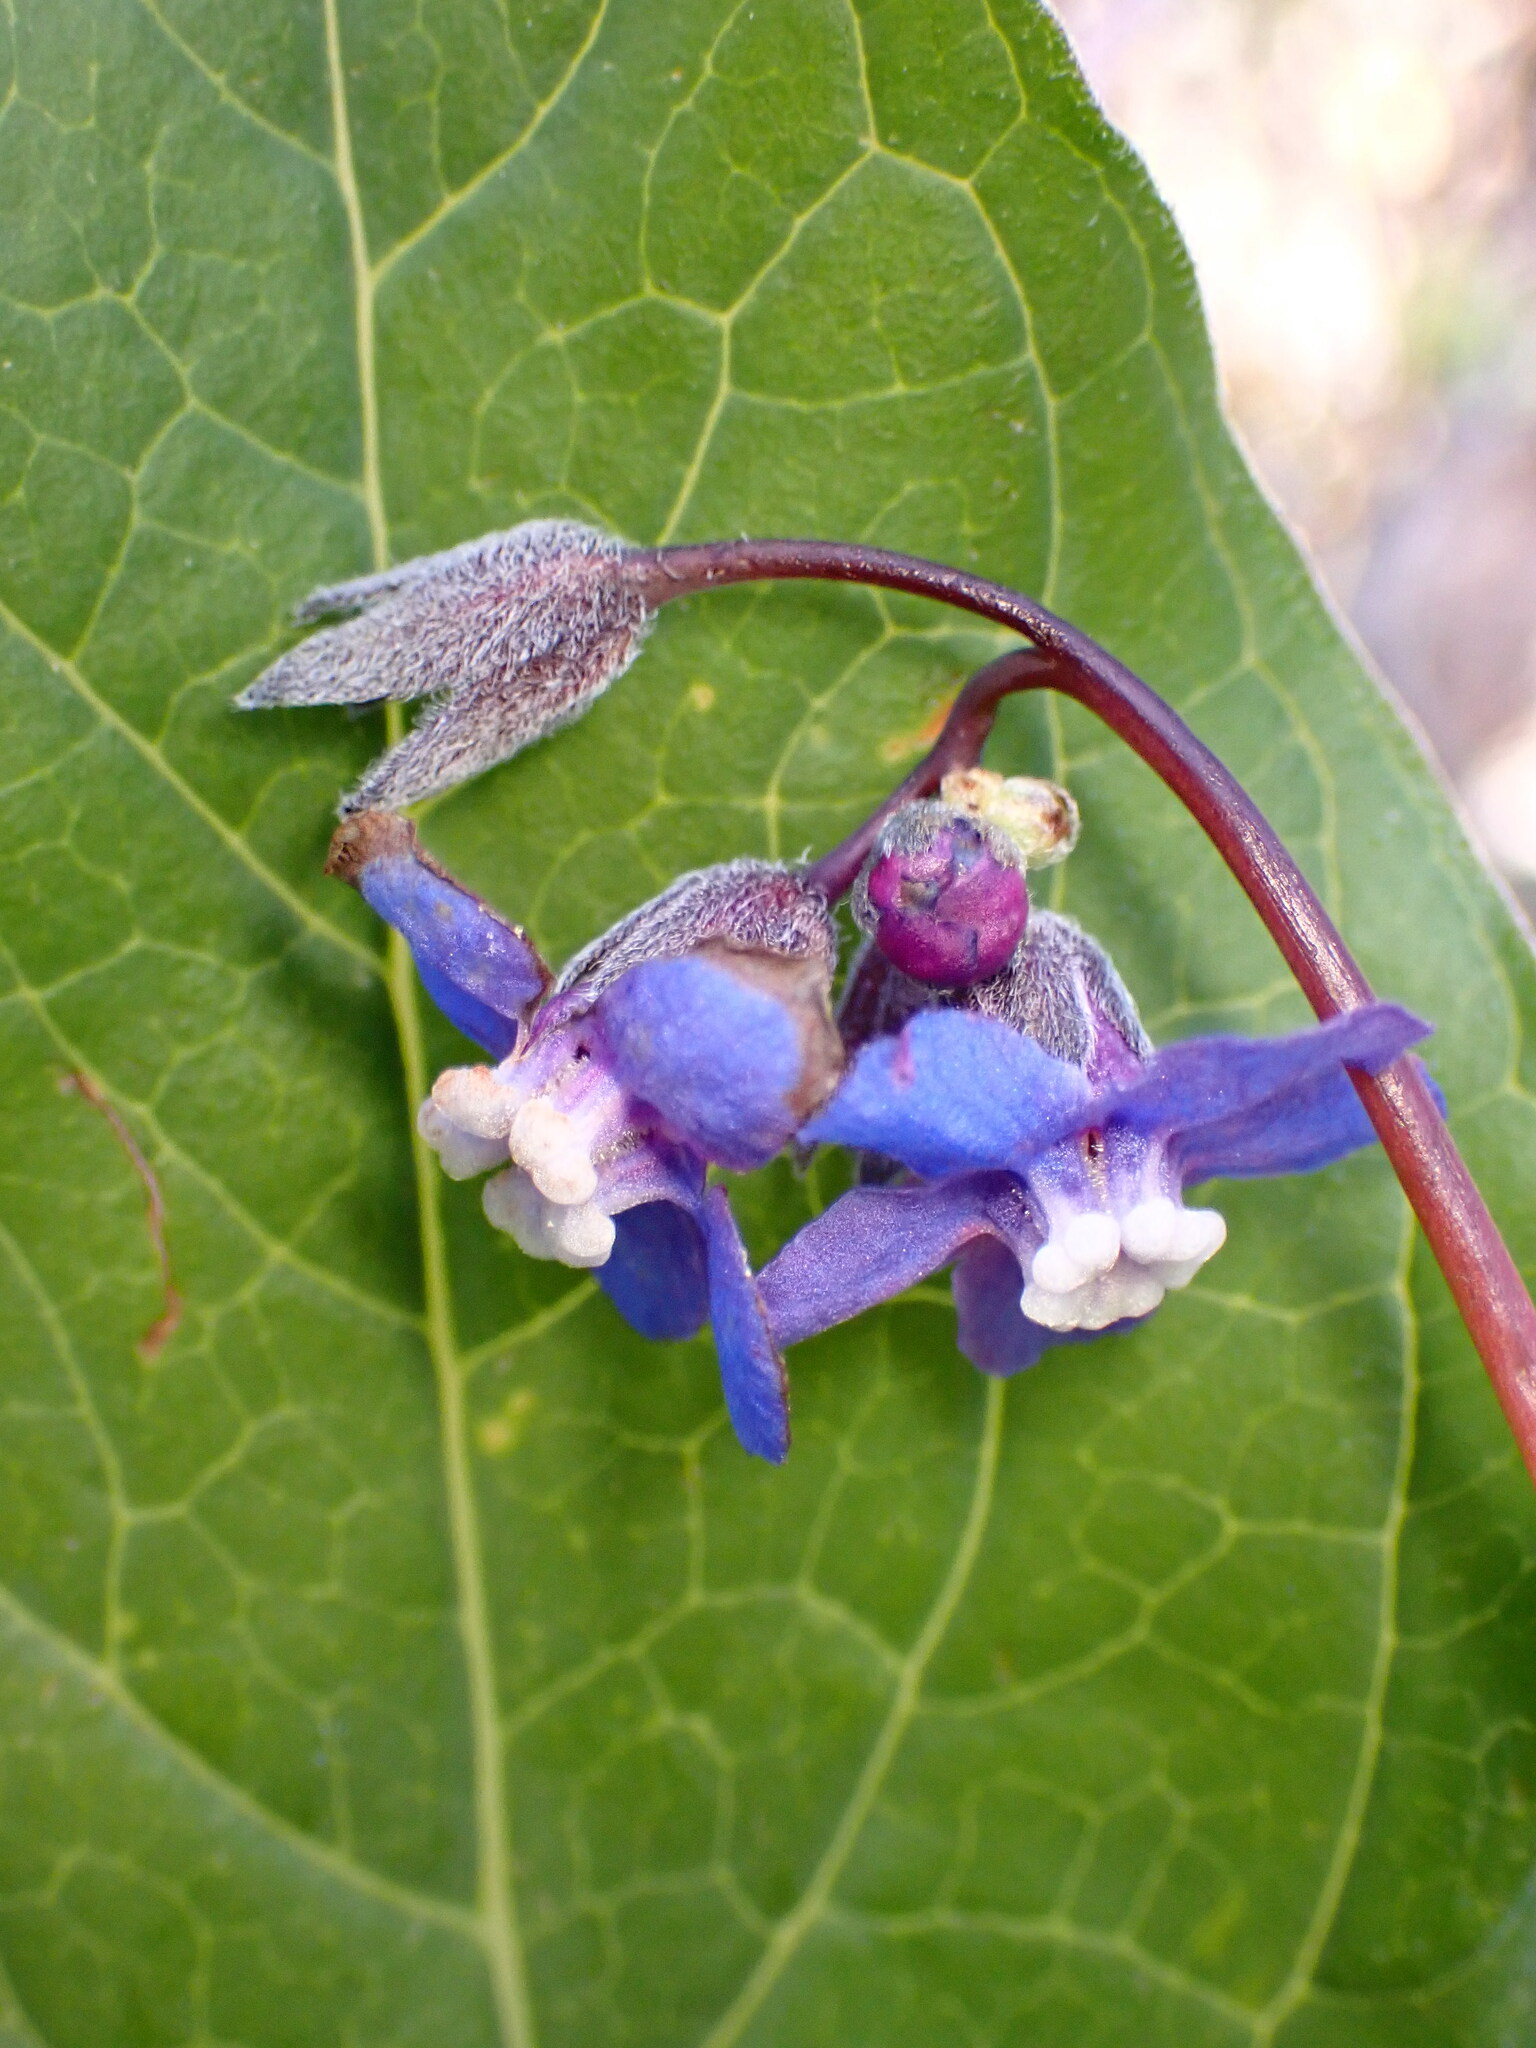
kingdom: Plantae
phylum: Tracheophyta
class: Magnoliopsida
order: Boraginales
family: Boraginaceae
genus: Adelinia
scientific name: Adelinia grande
